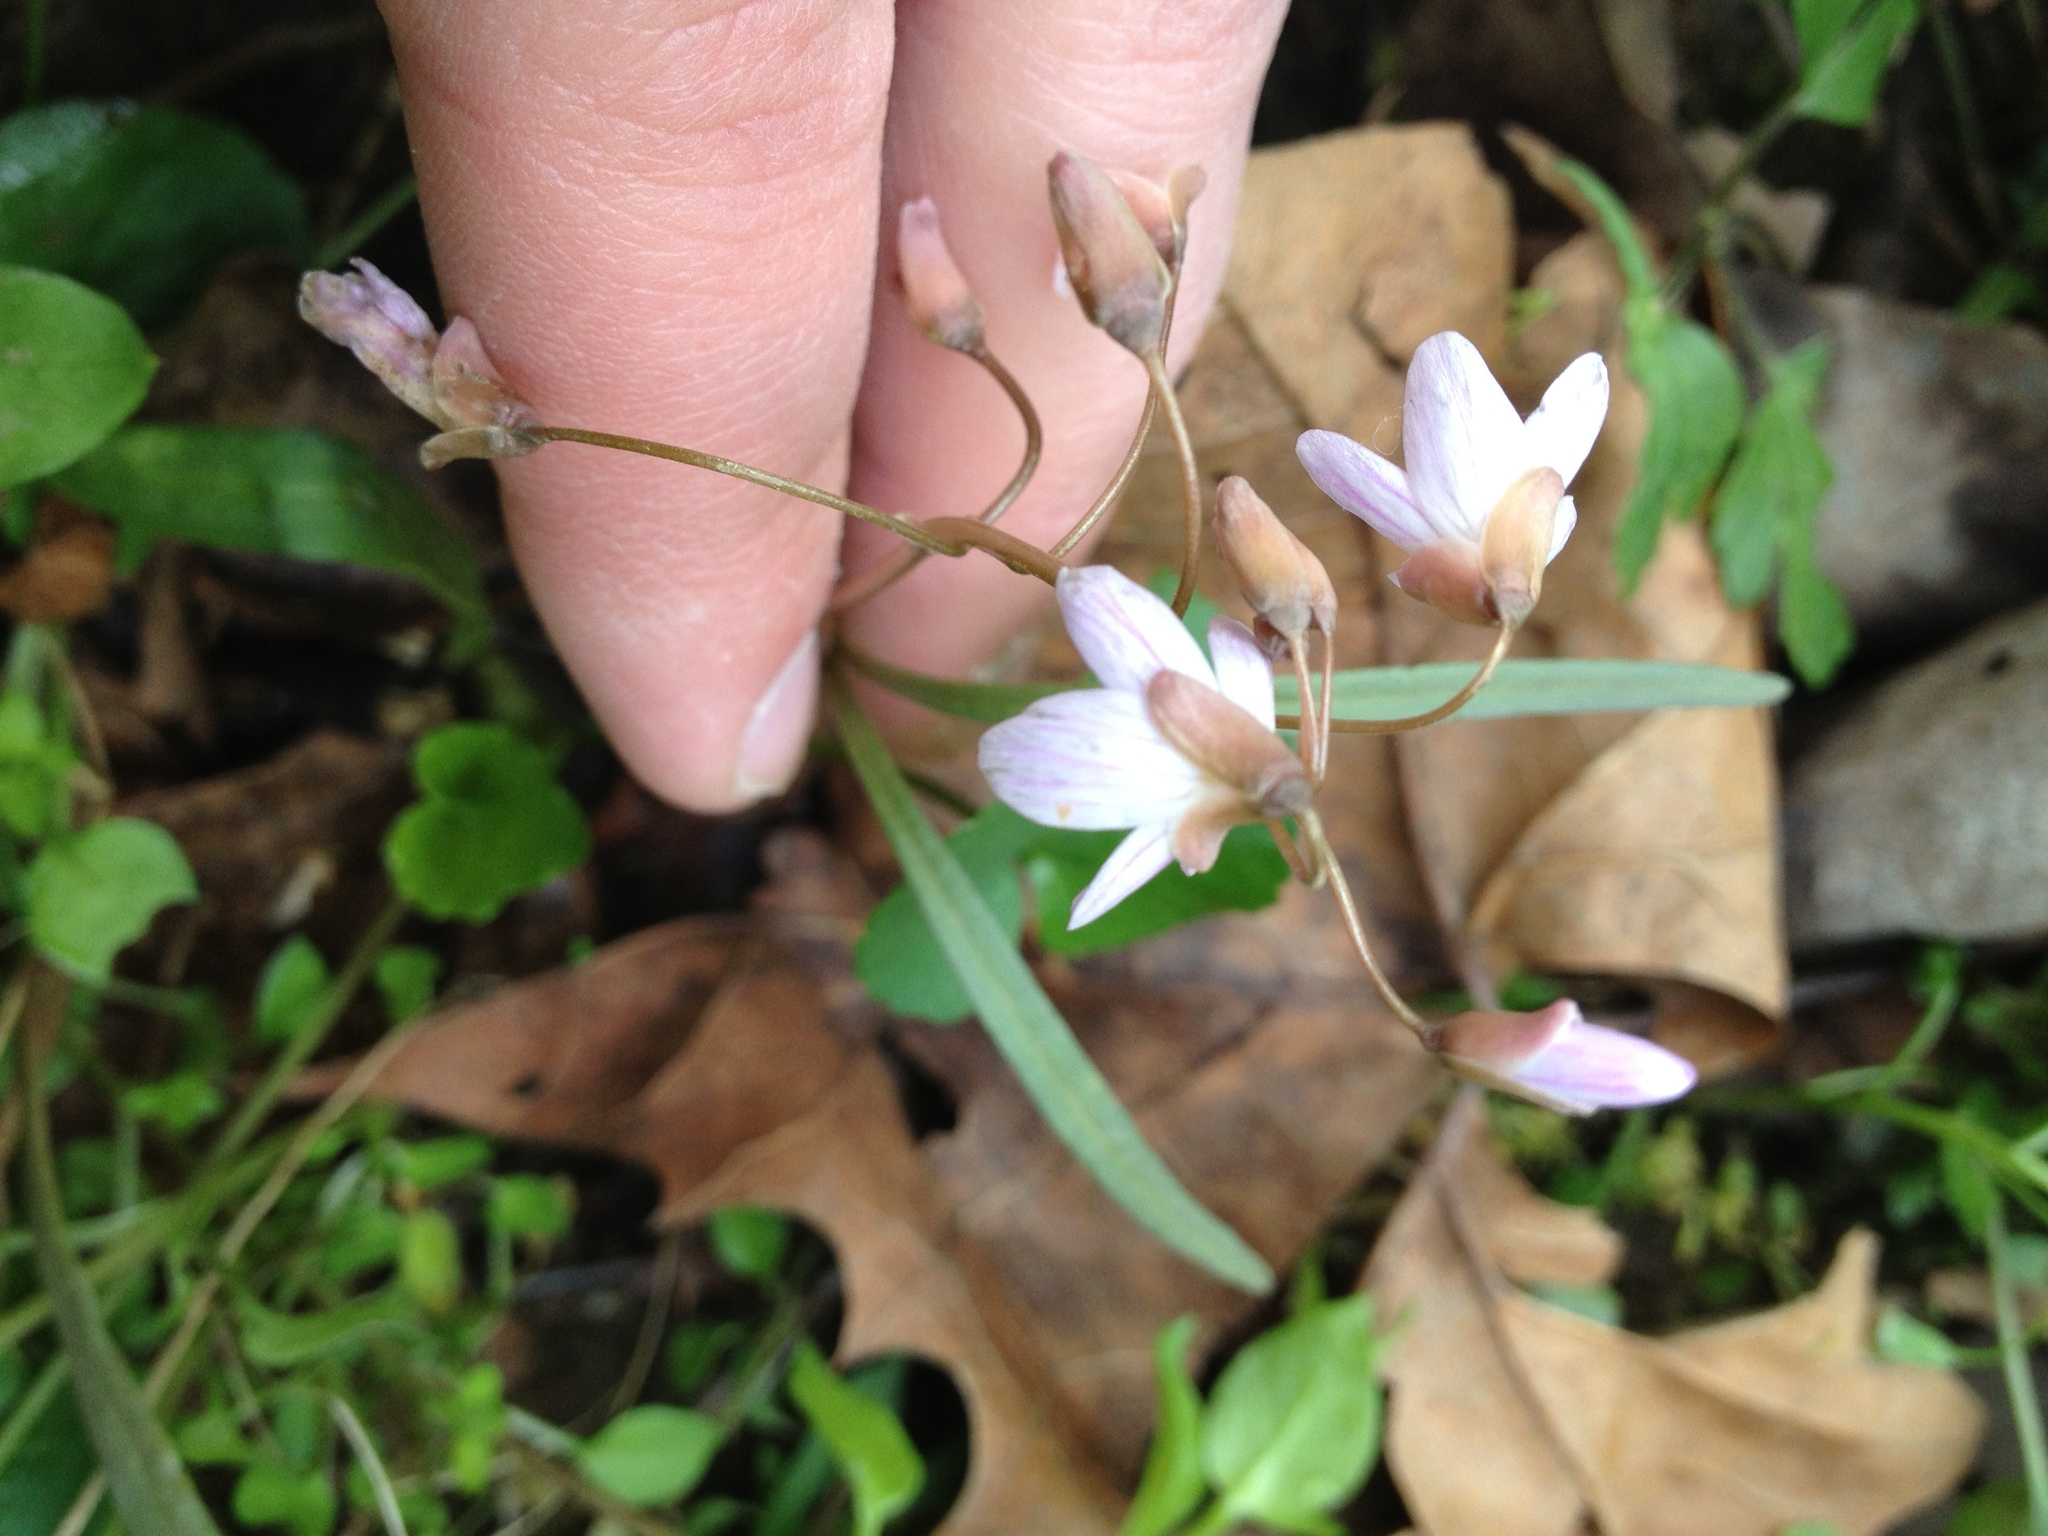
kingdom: Plantae
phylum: Tracheophyta
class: Magnoliopsida
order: Caryophyllales
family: Montiaceae
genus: Claytonia
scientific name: Claytonia virginica
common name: Virginia springbeauty
